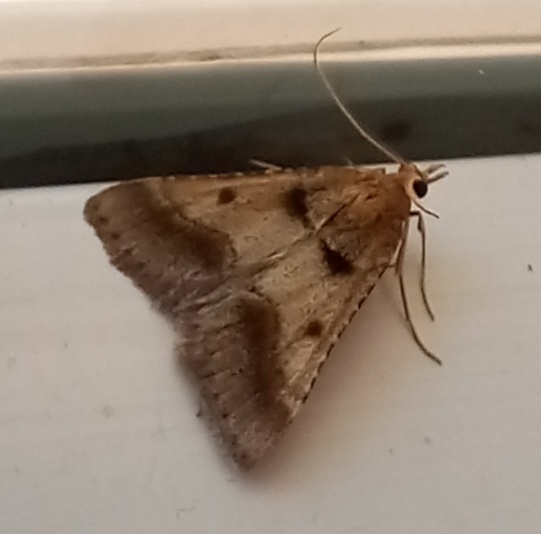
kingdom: Animalia
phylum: Arthropoda
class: Insecta
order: Lepidoptera
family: Pyralidae
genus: Stemmatophora
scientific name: Stemmatophora brunnealis
